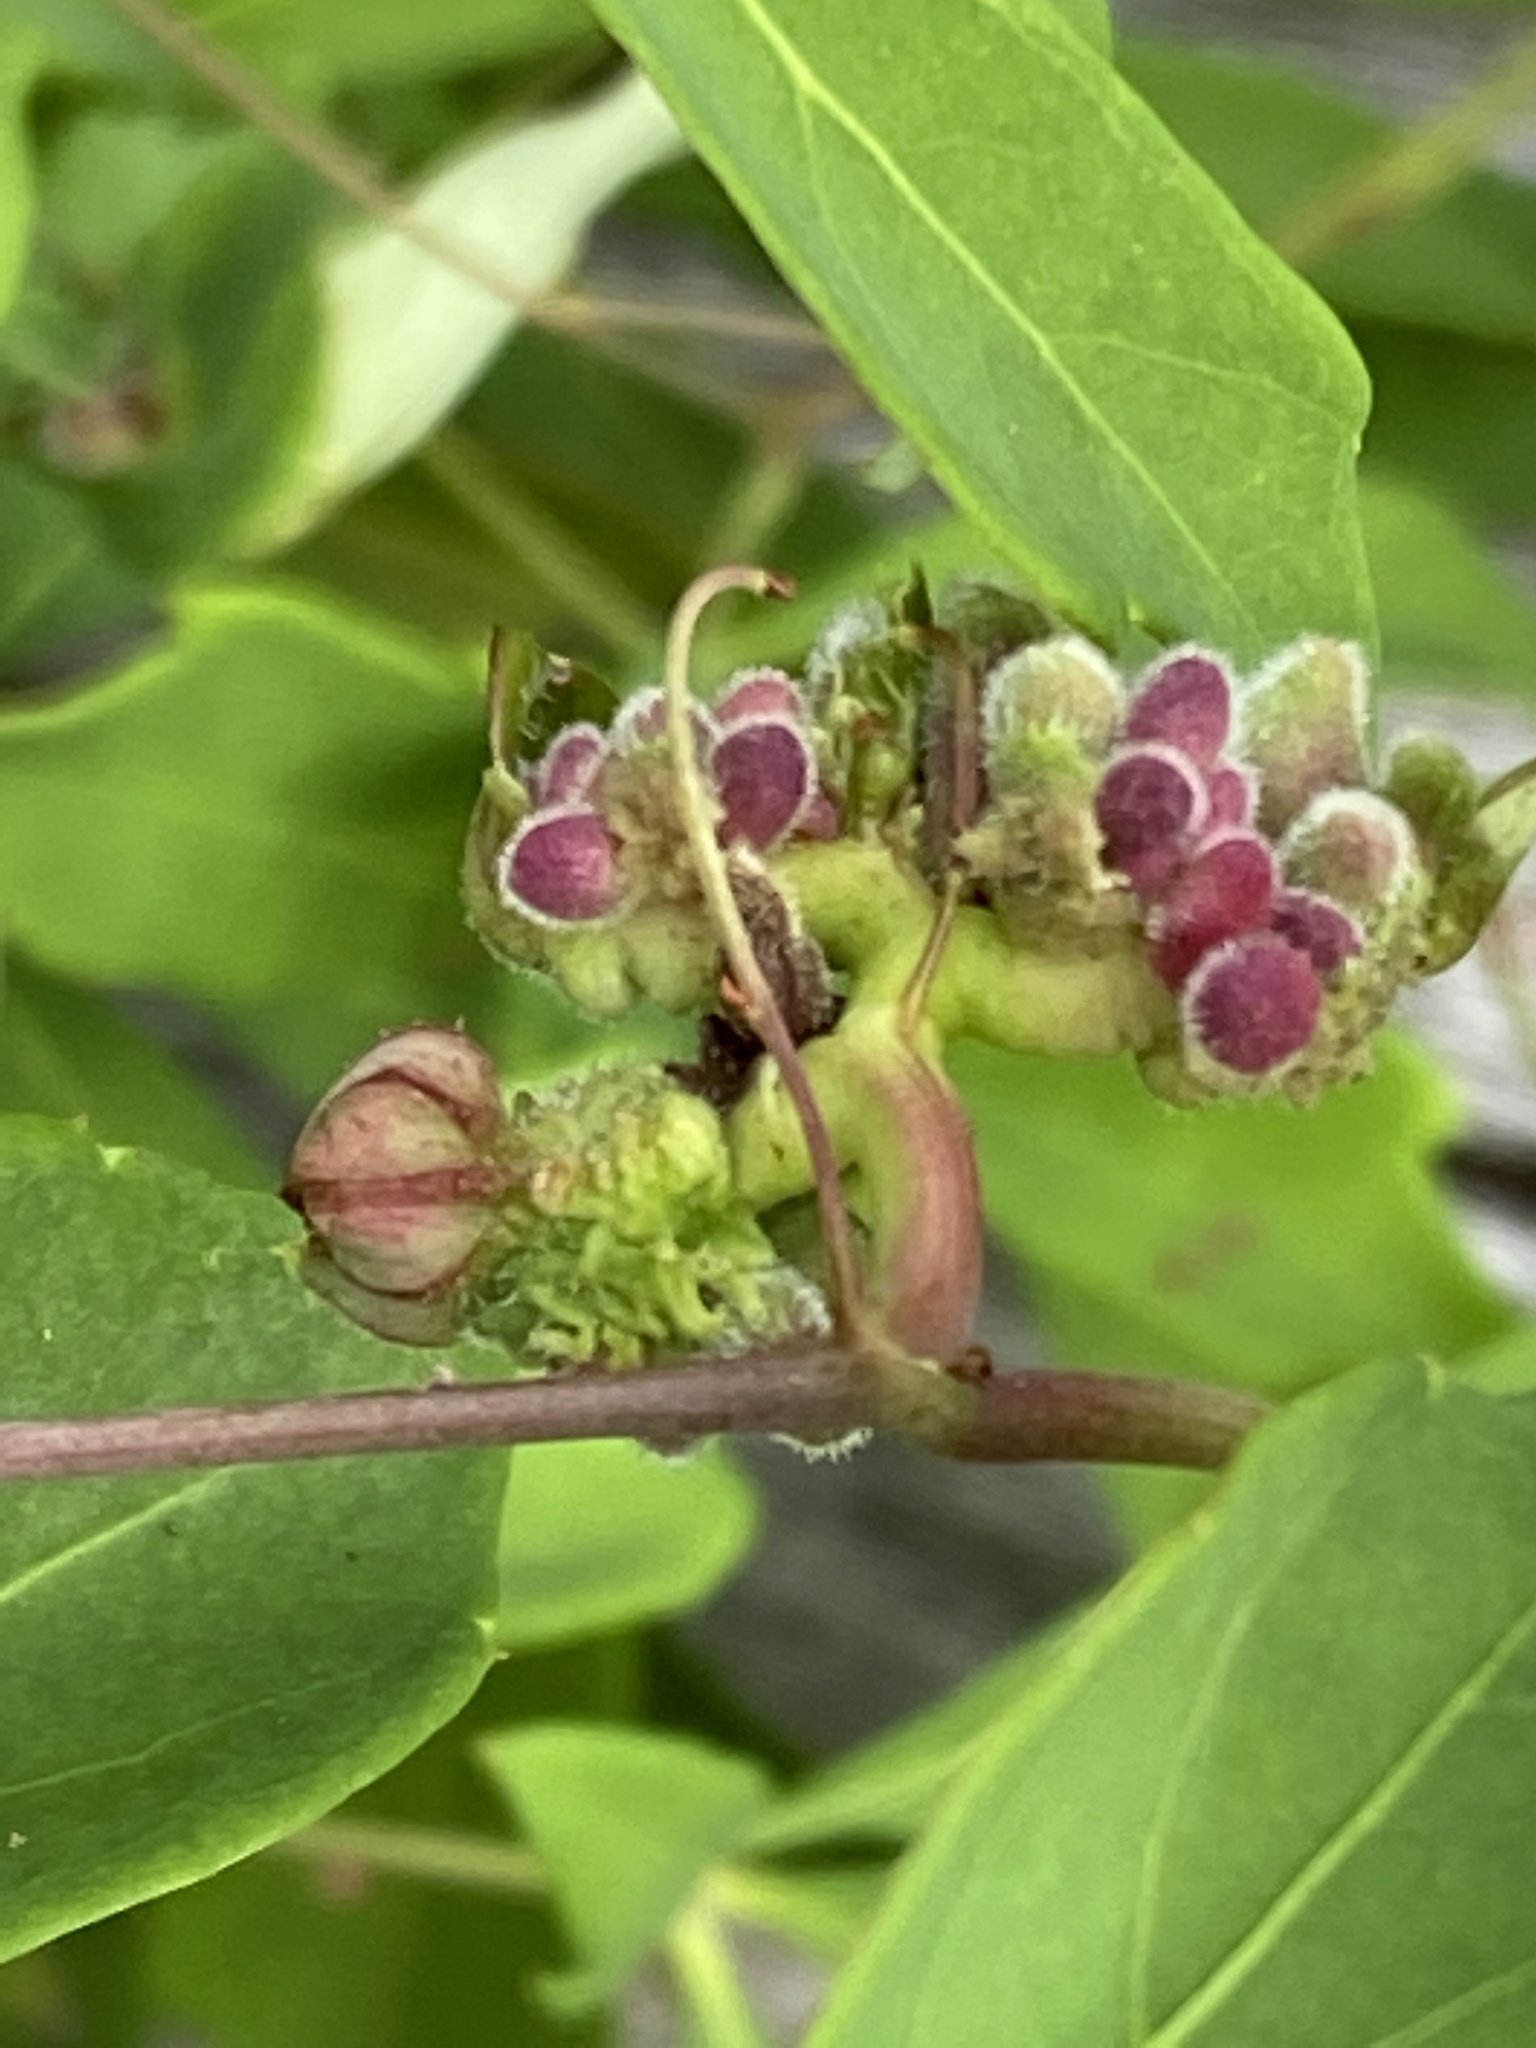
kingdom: Plantae
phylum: Tracheophyta
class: Magnoliopsida
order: Vitales
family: Vitaceae
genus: Clematicissus
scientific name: Clematicissus opaca
